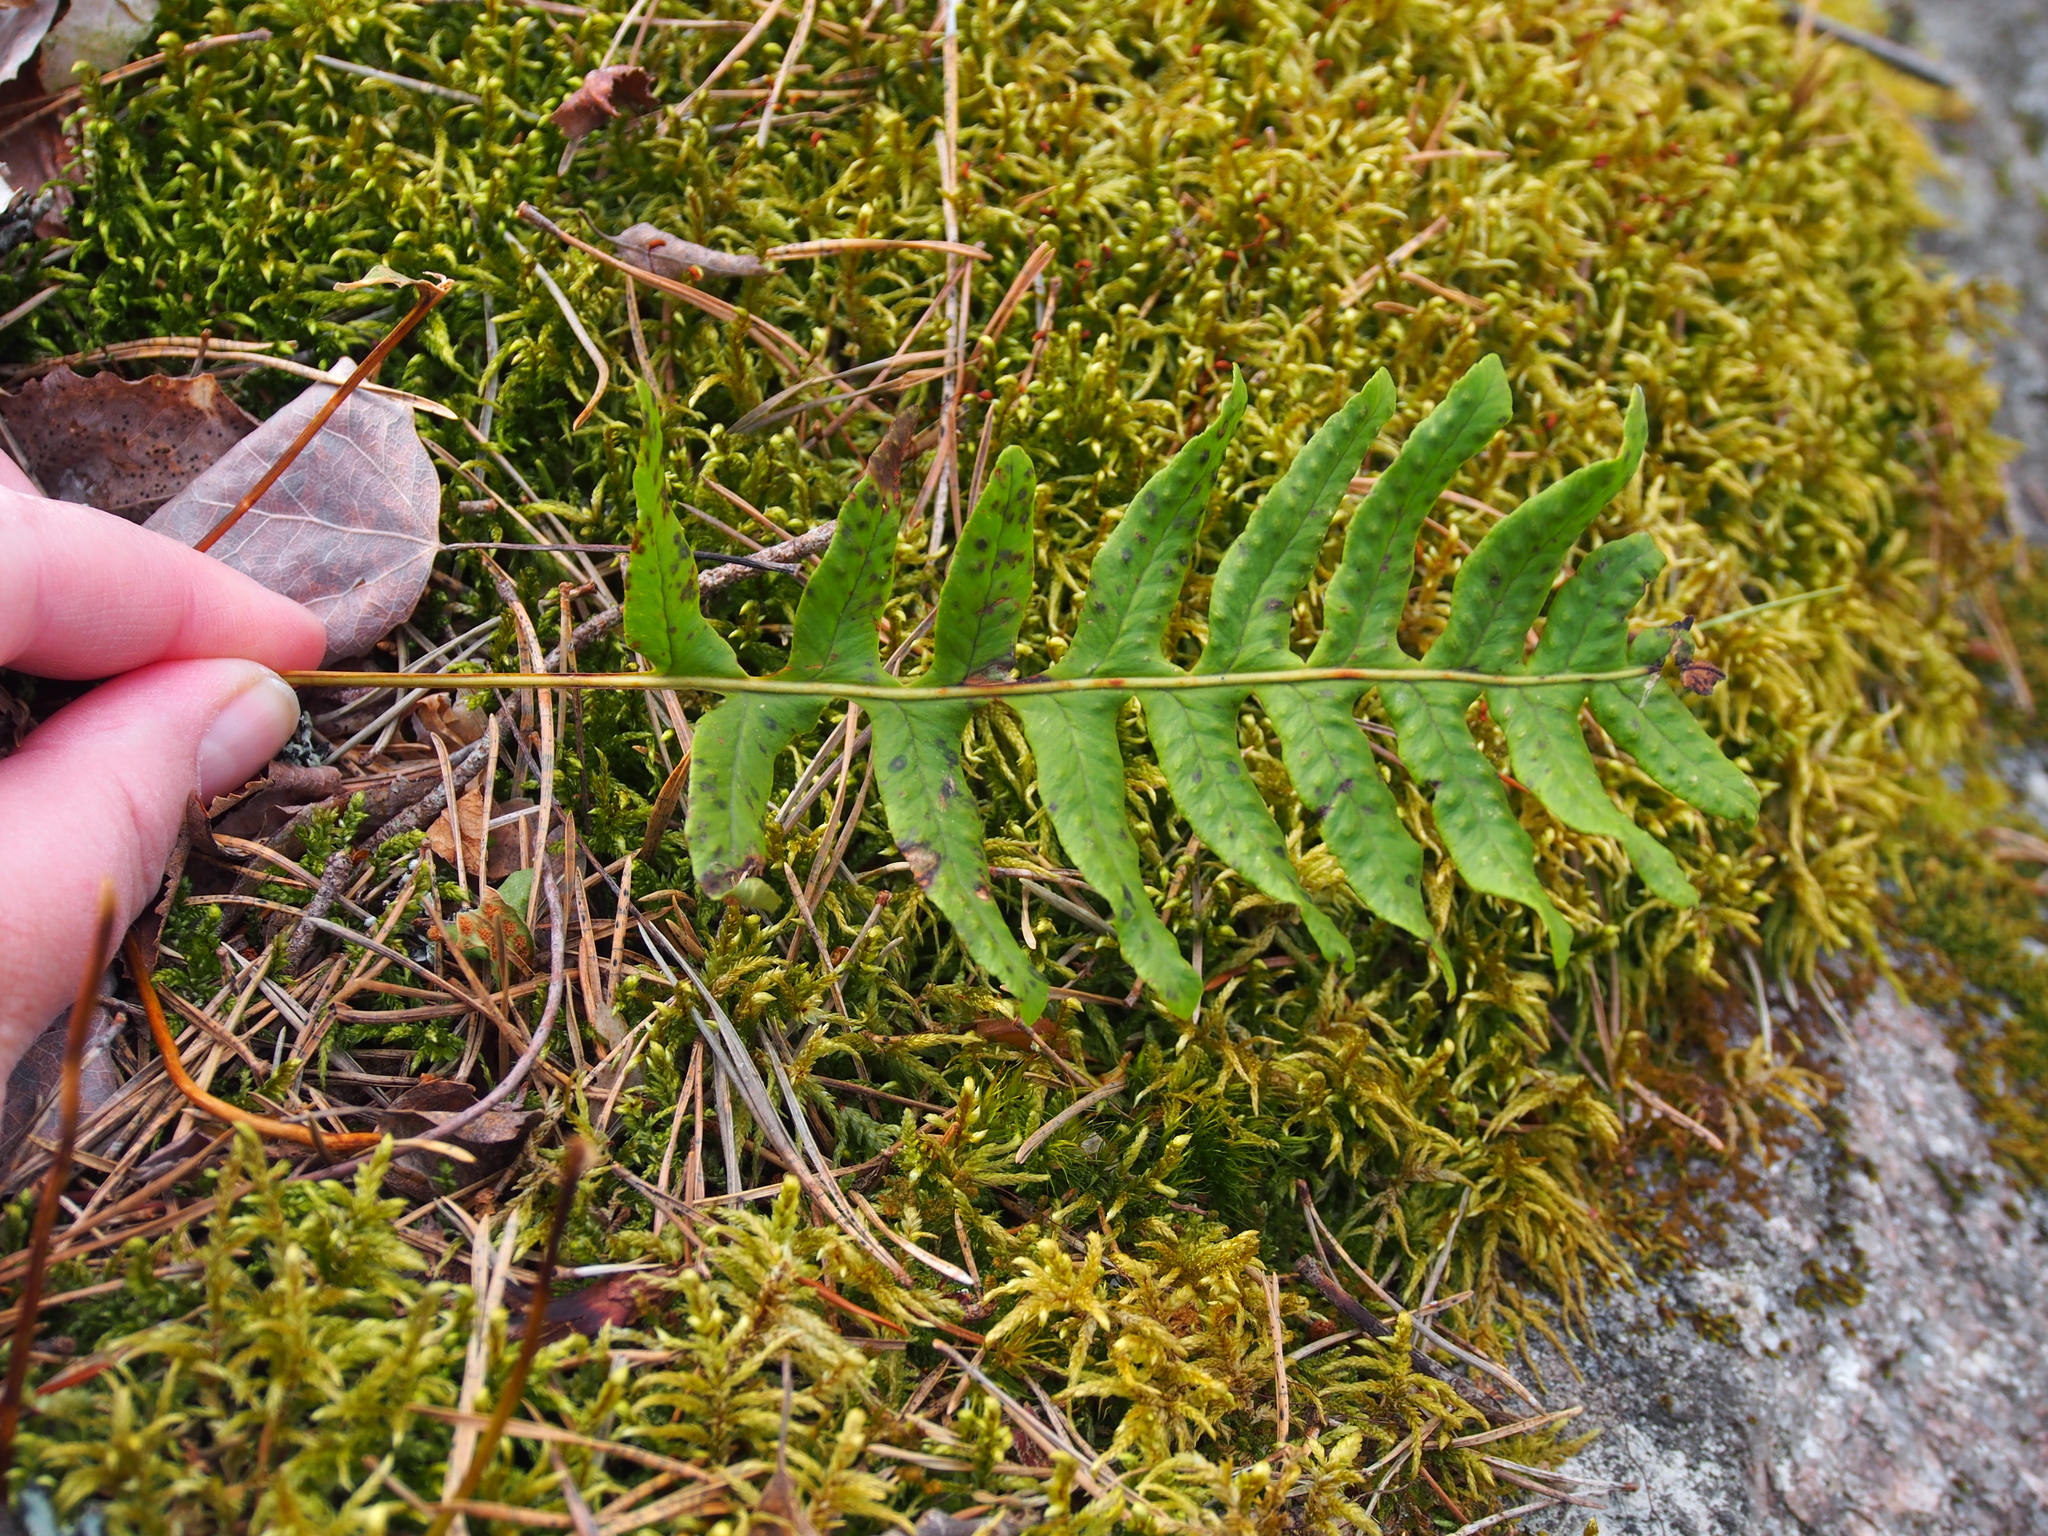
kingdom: Plantae
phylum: Tracheophyta
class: Polypodiopsida
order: Polypodiales
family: Polypodiaceae
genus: Polypodium
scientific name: Polypodium vulgare
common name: Common polypody
